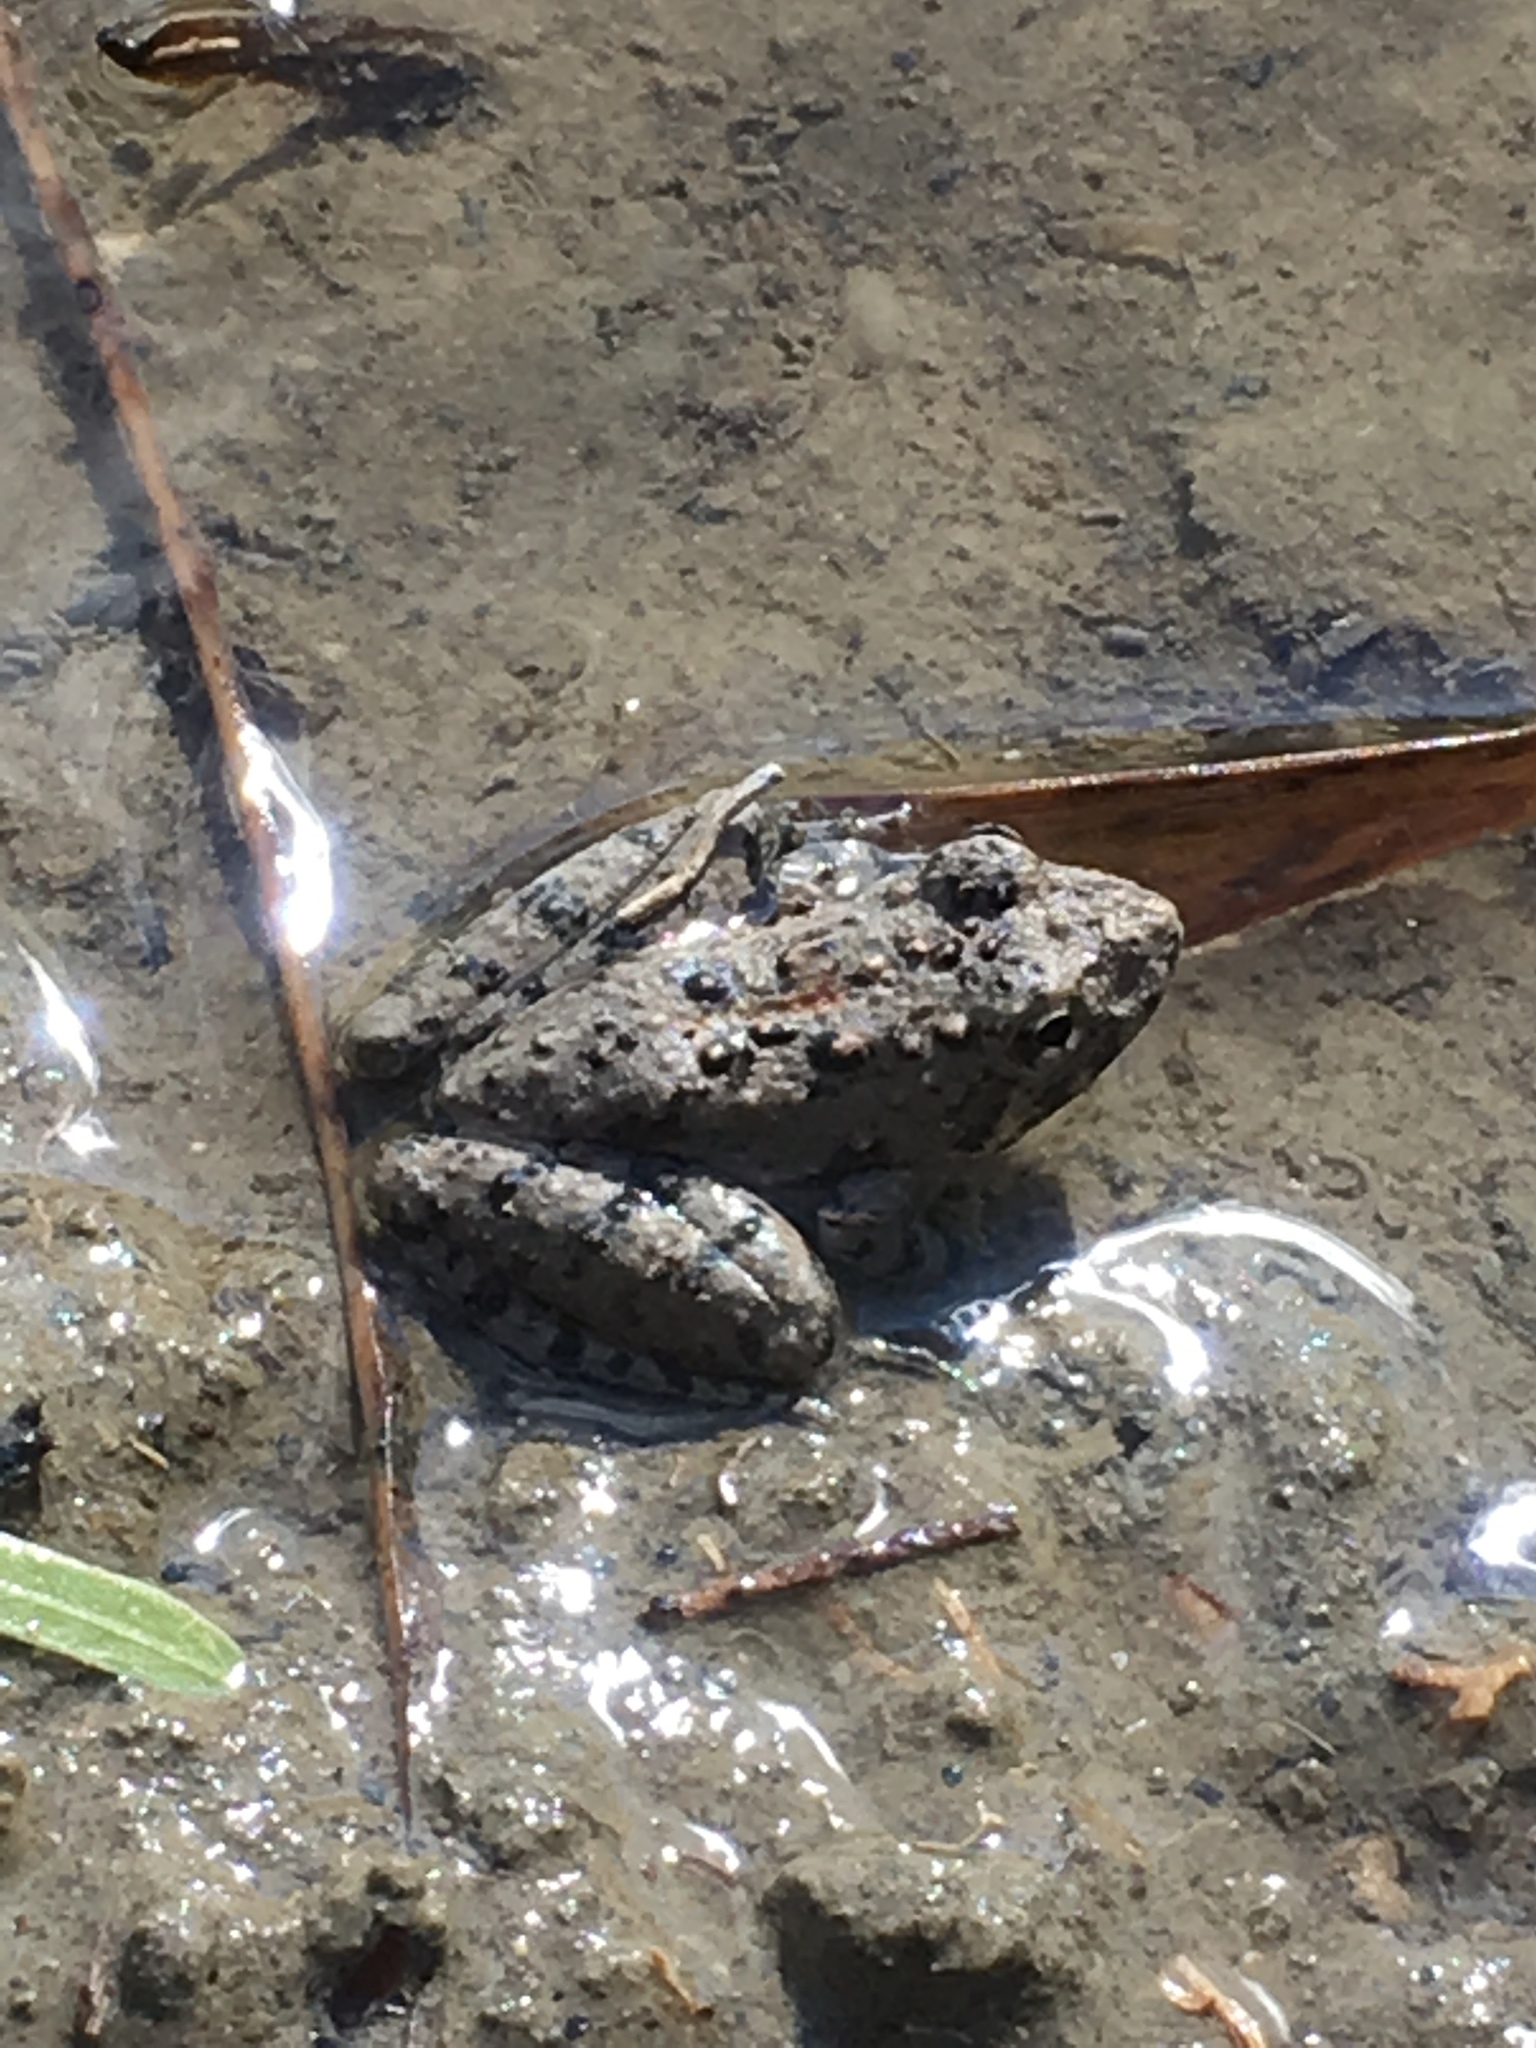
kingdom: Animalia
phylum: Chordata
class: Amphibia
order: Anura
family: Hylidae
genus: Acris
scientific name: Acris blanchardi
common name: Blanchard's cricket frog
